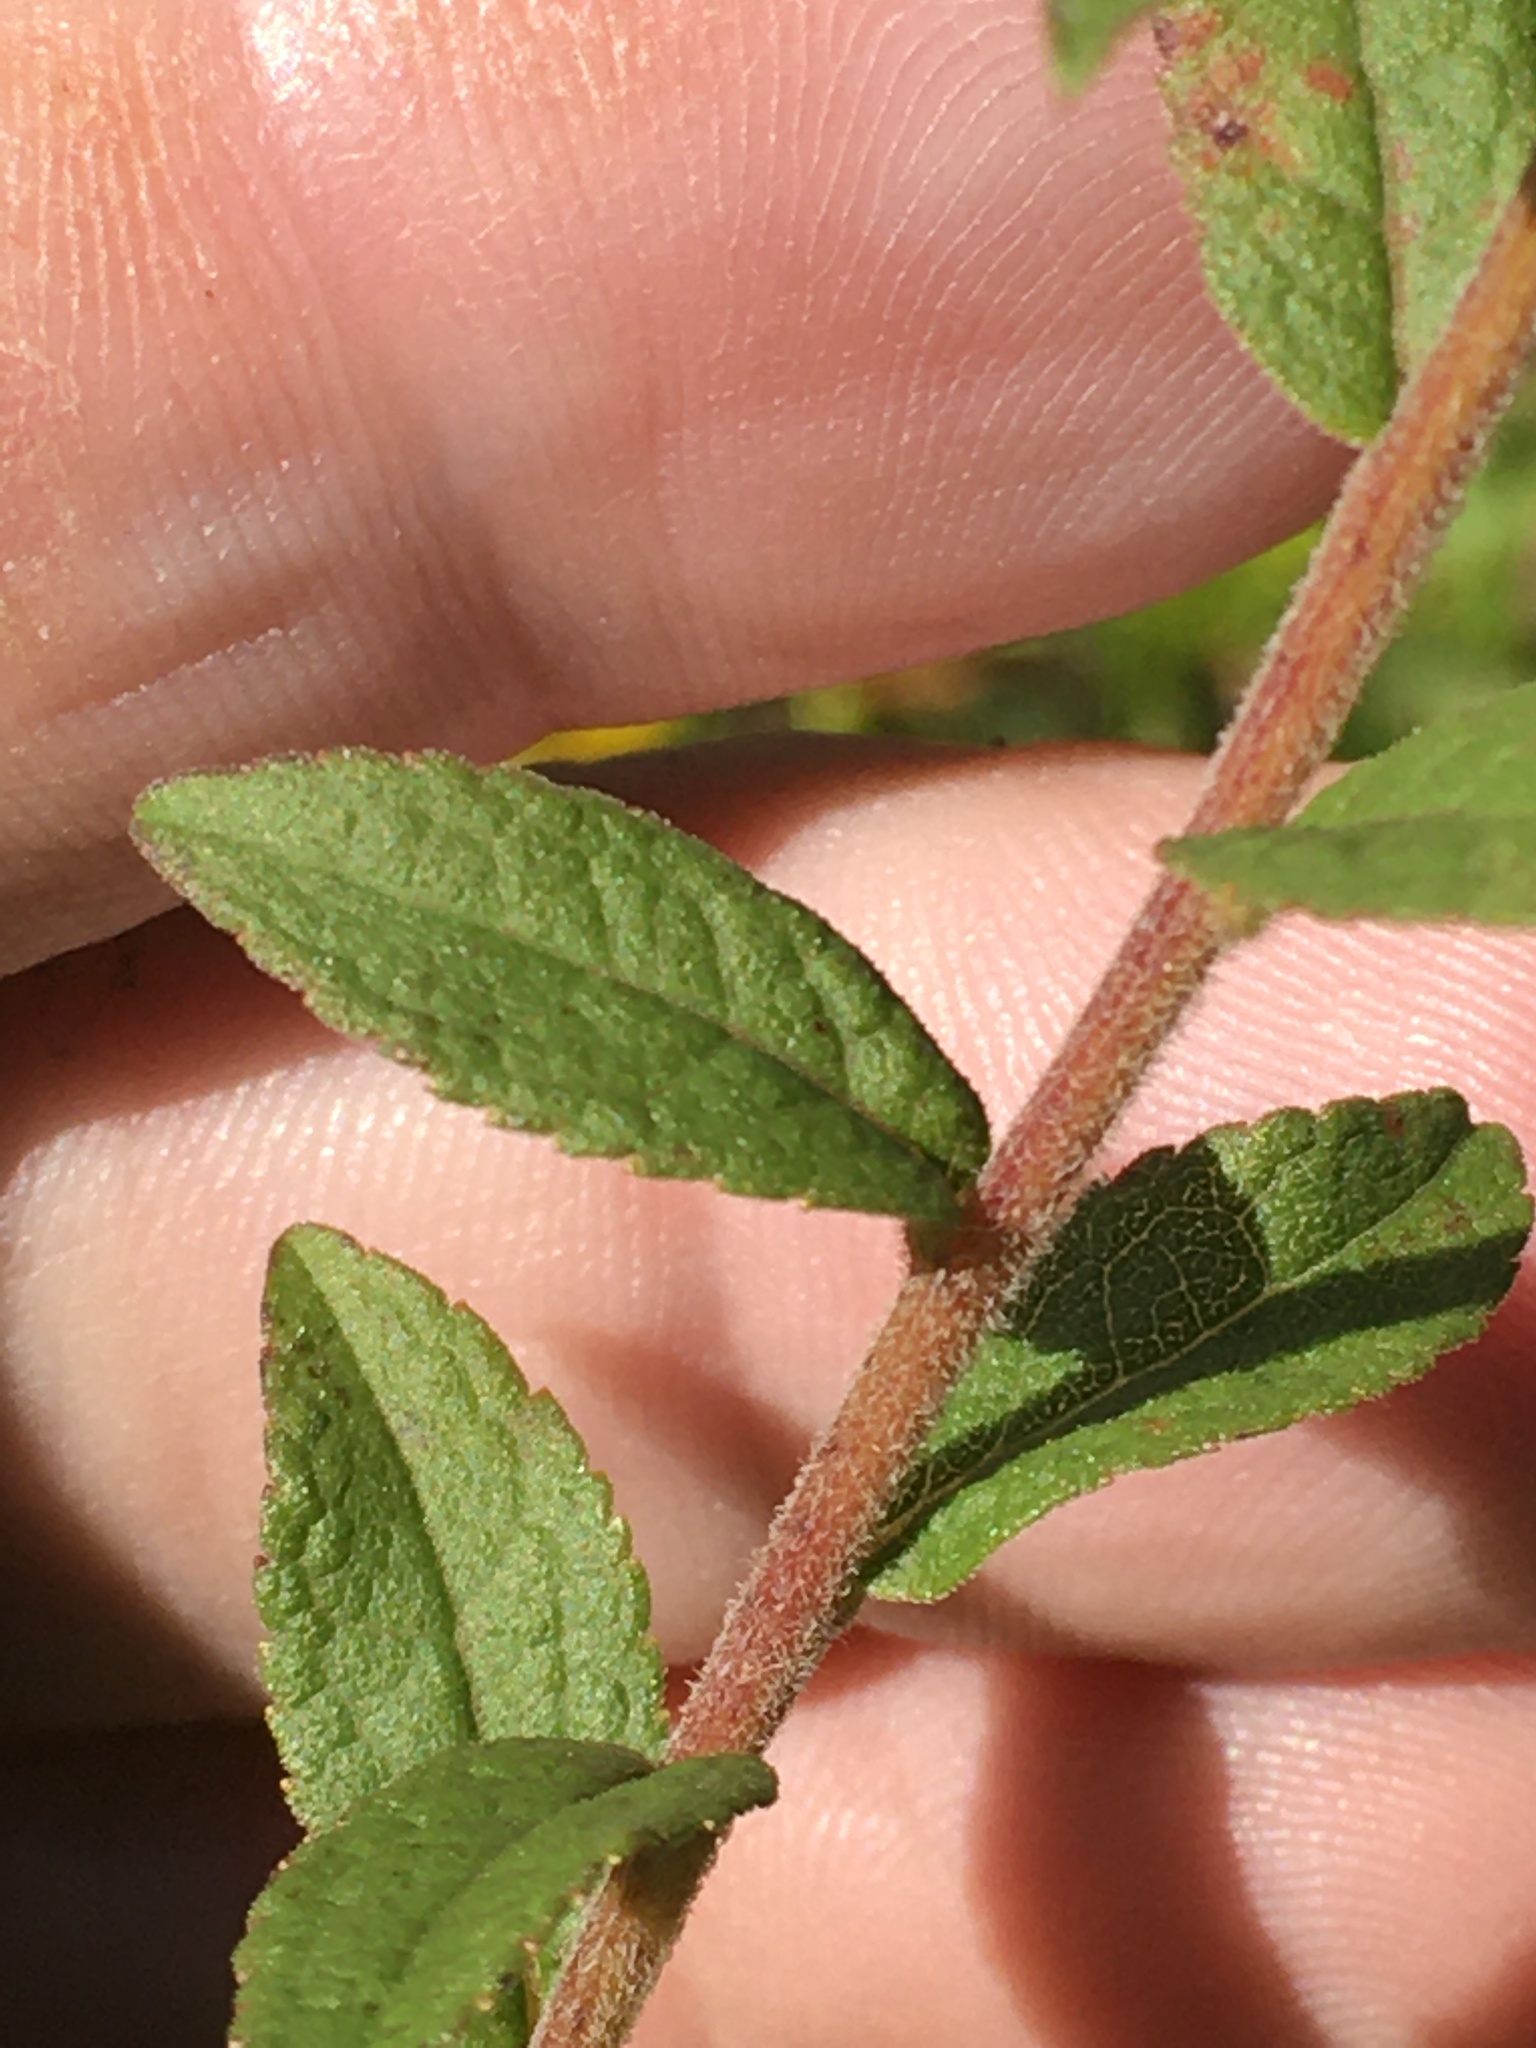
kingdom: Plantae
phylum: Tracheophyta
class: Magnoliopsida
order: Asterales
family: Asteraceae
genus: Solidago
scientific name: Solidago rugosa
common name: Rough-stemmed goldenrod
